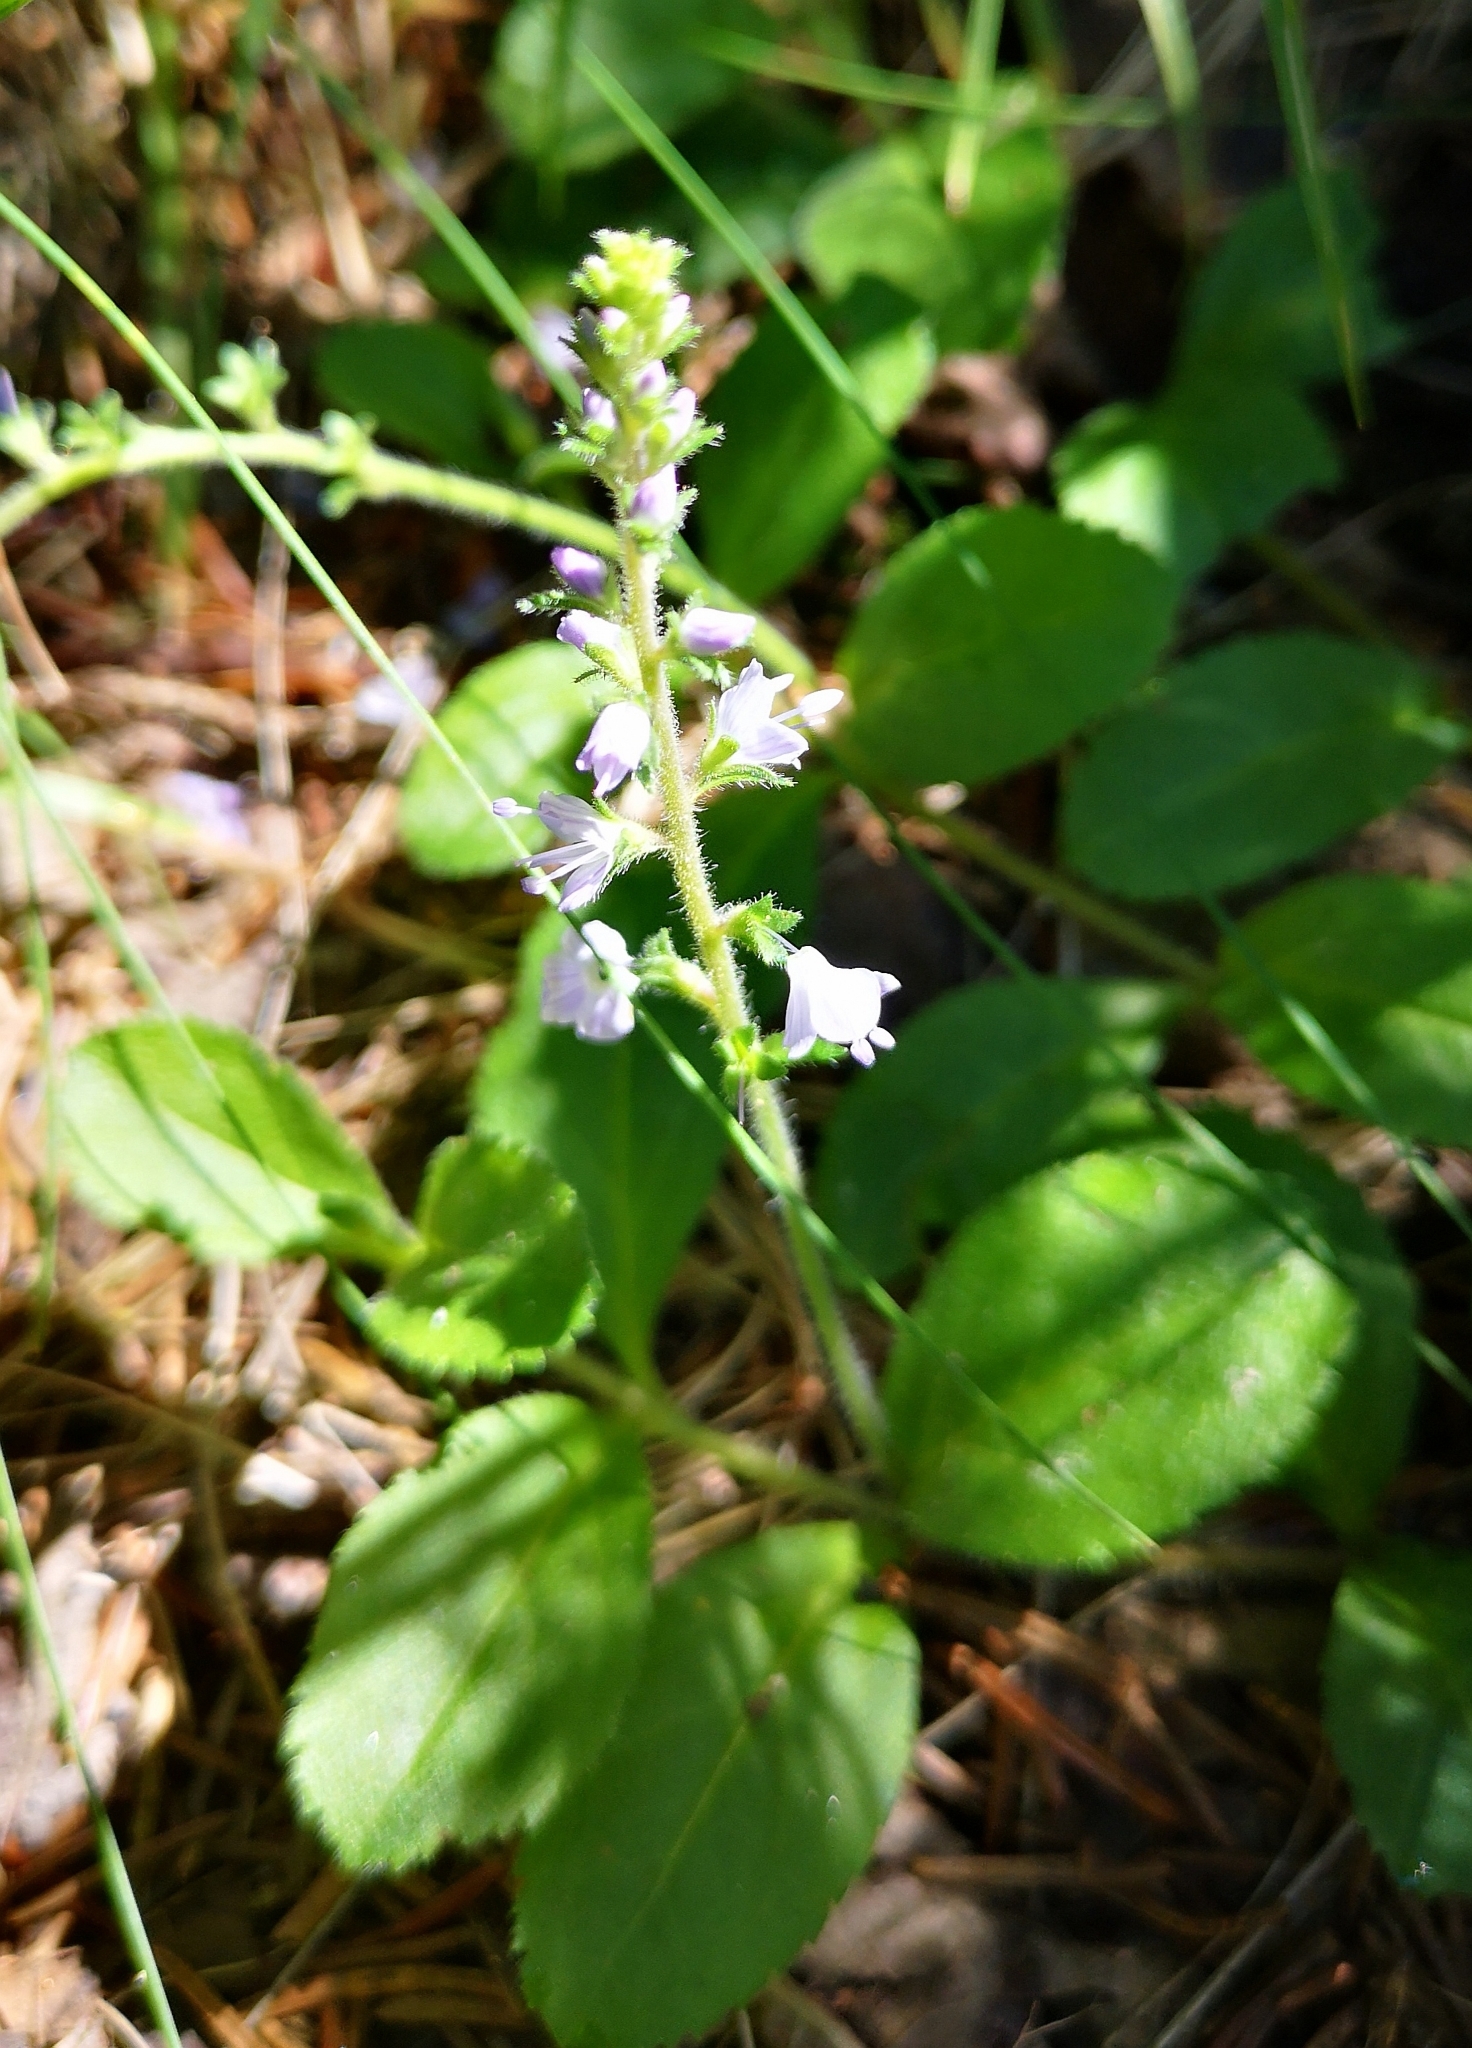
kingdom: Plantae
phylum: Tracheophyta
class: Magnoliopsida
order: Lamiales
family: Plantaginaceae
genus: Veronica
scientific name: Veronica officinalis
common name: Common speedwell
